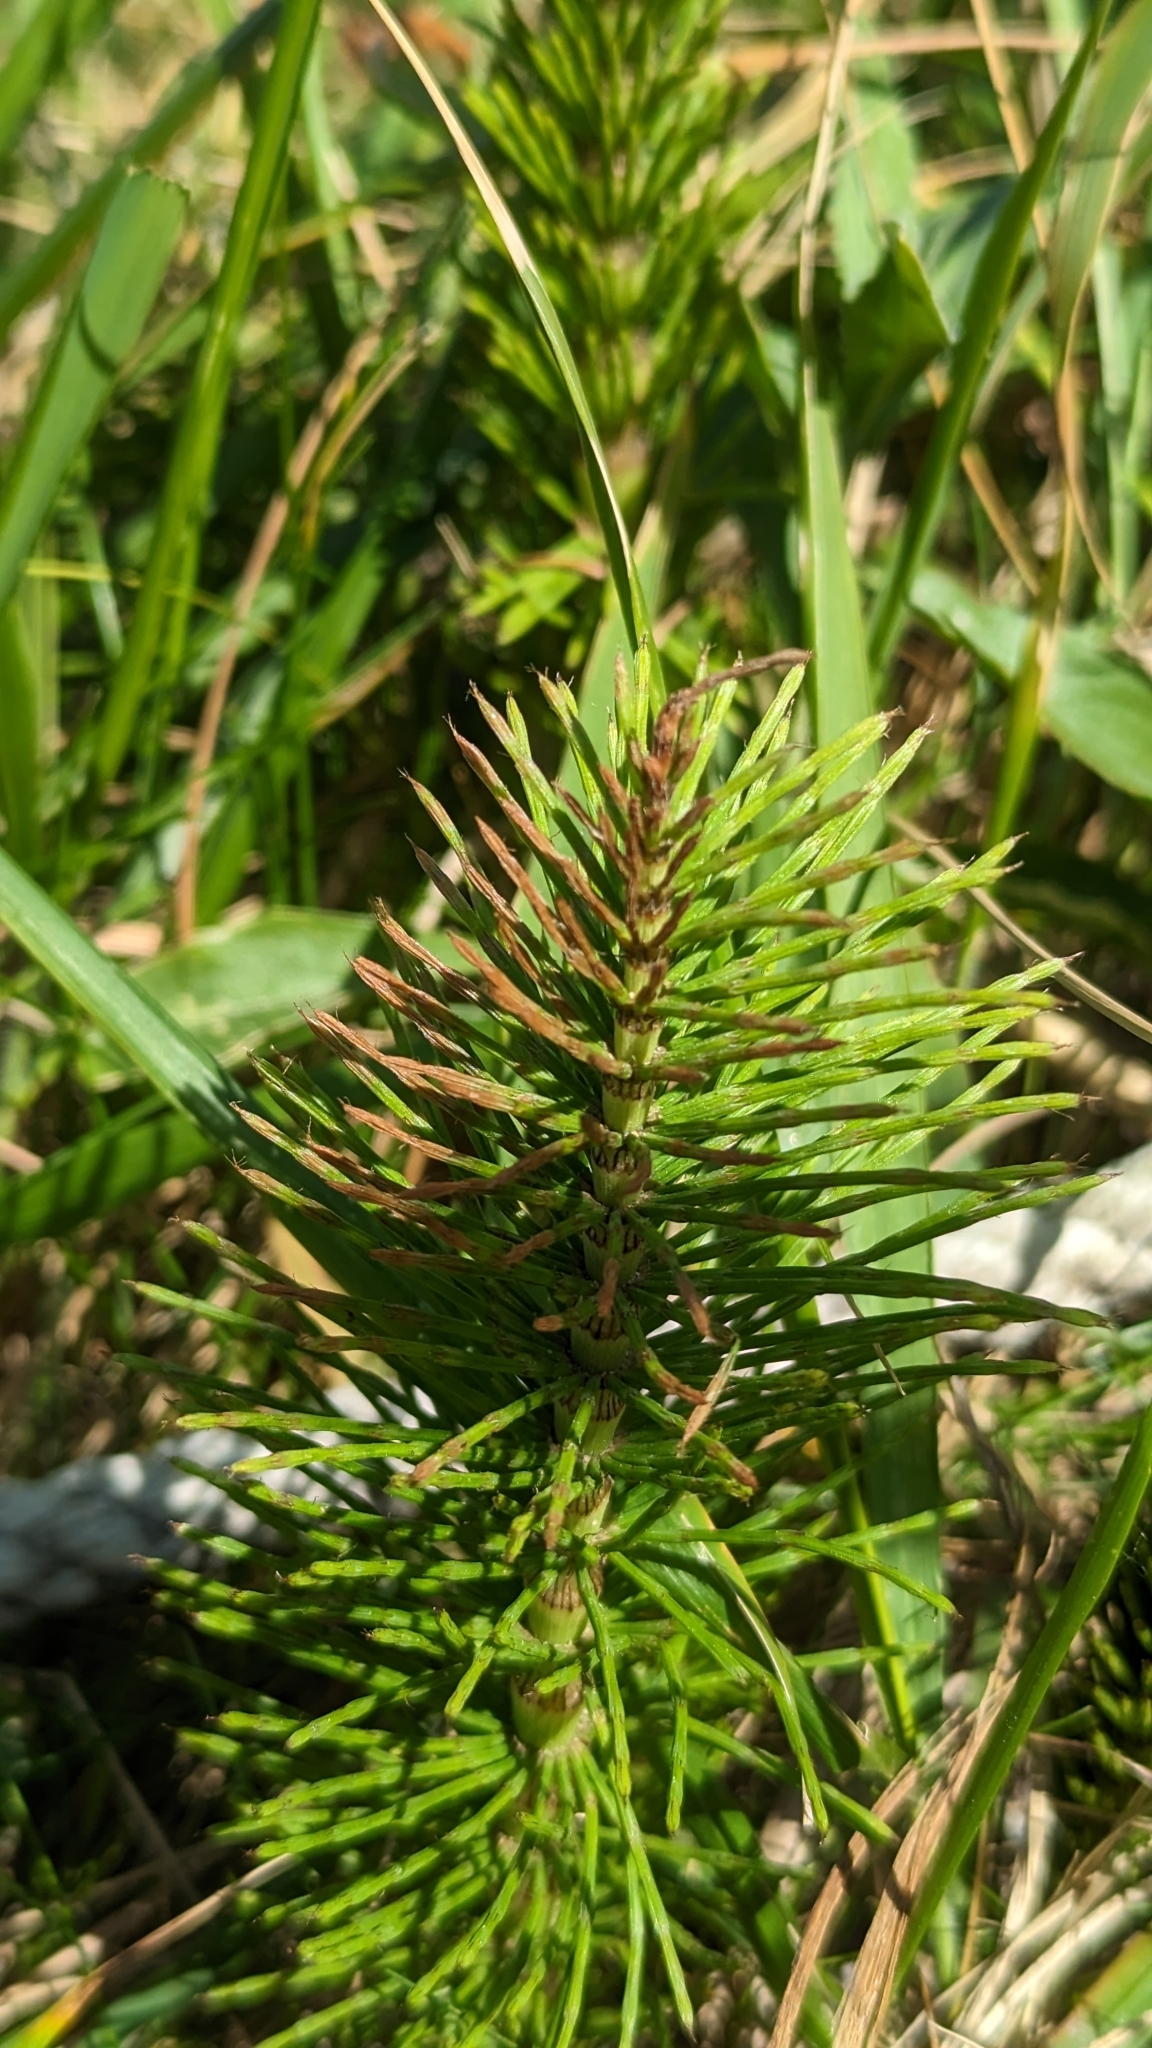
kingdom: Plantae
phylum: Tracheophyta
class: Polypodiopsida
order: Equisetales
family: Equisetaceae
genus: Equisetum
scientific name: Equisetum telmateia
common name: Great horsetail
